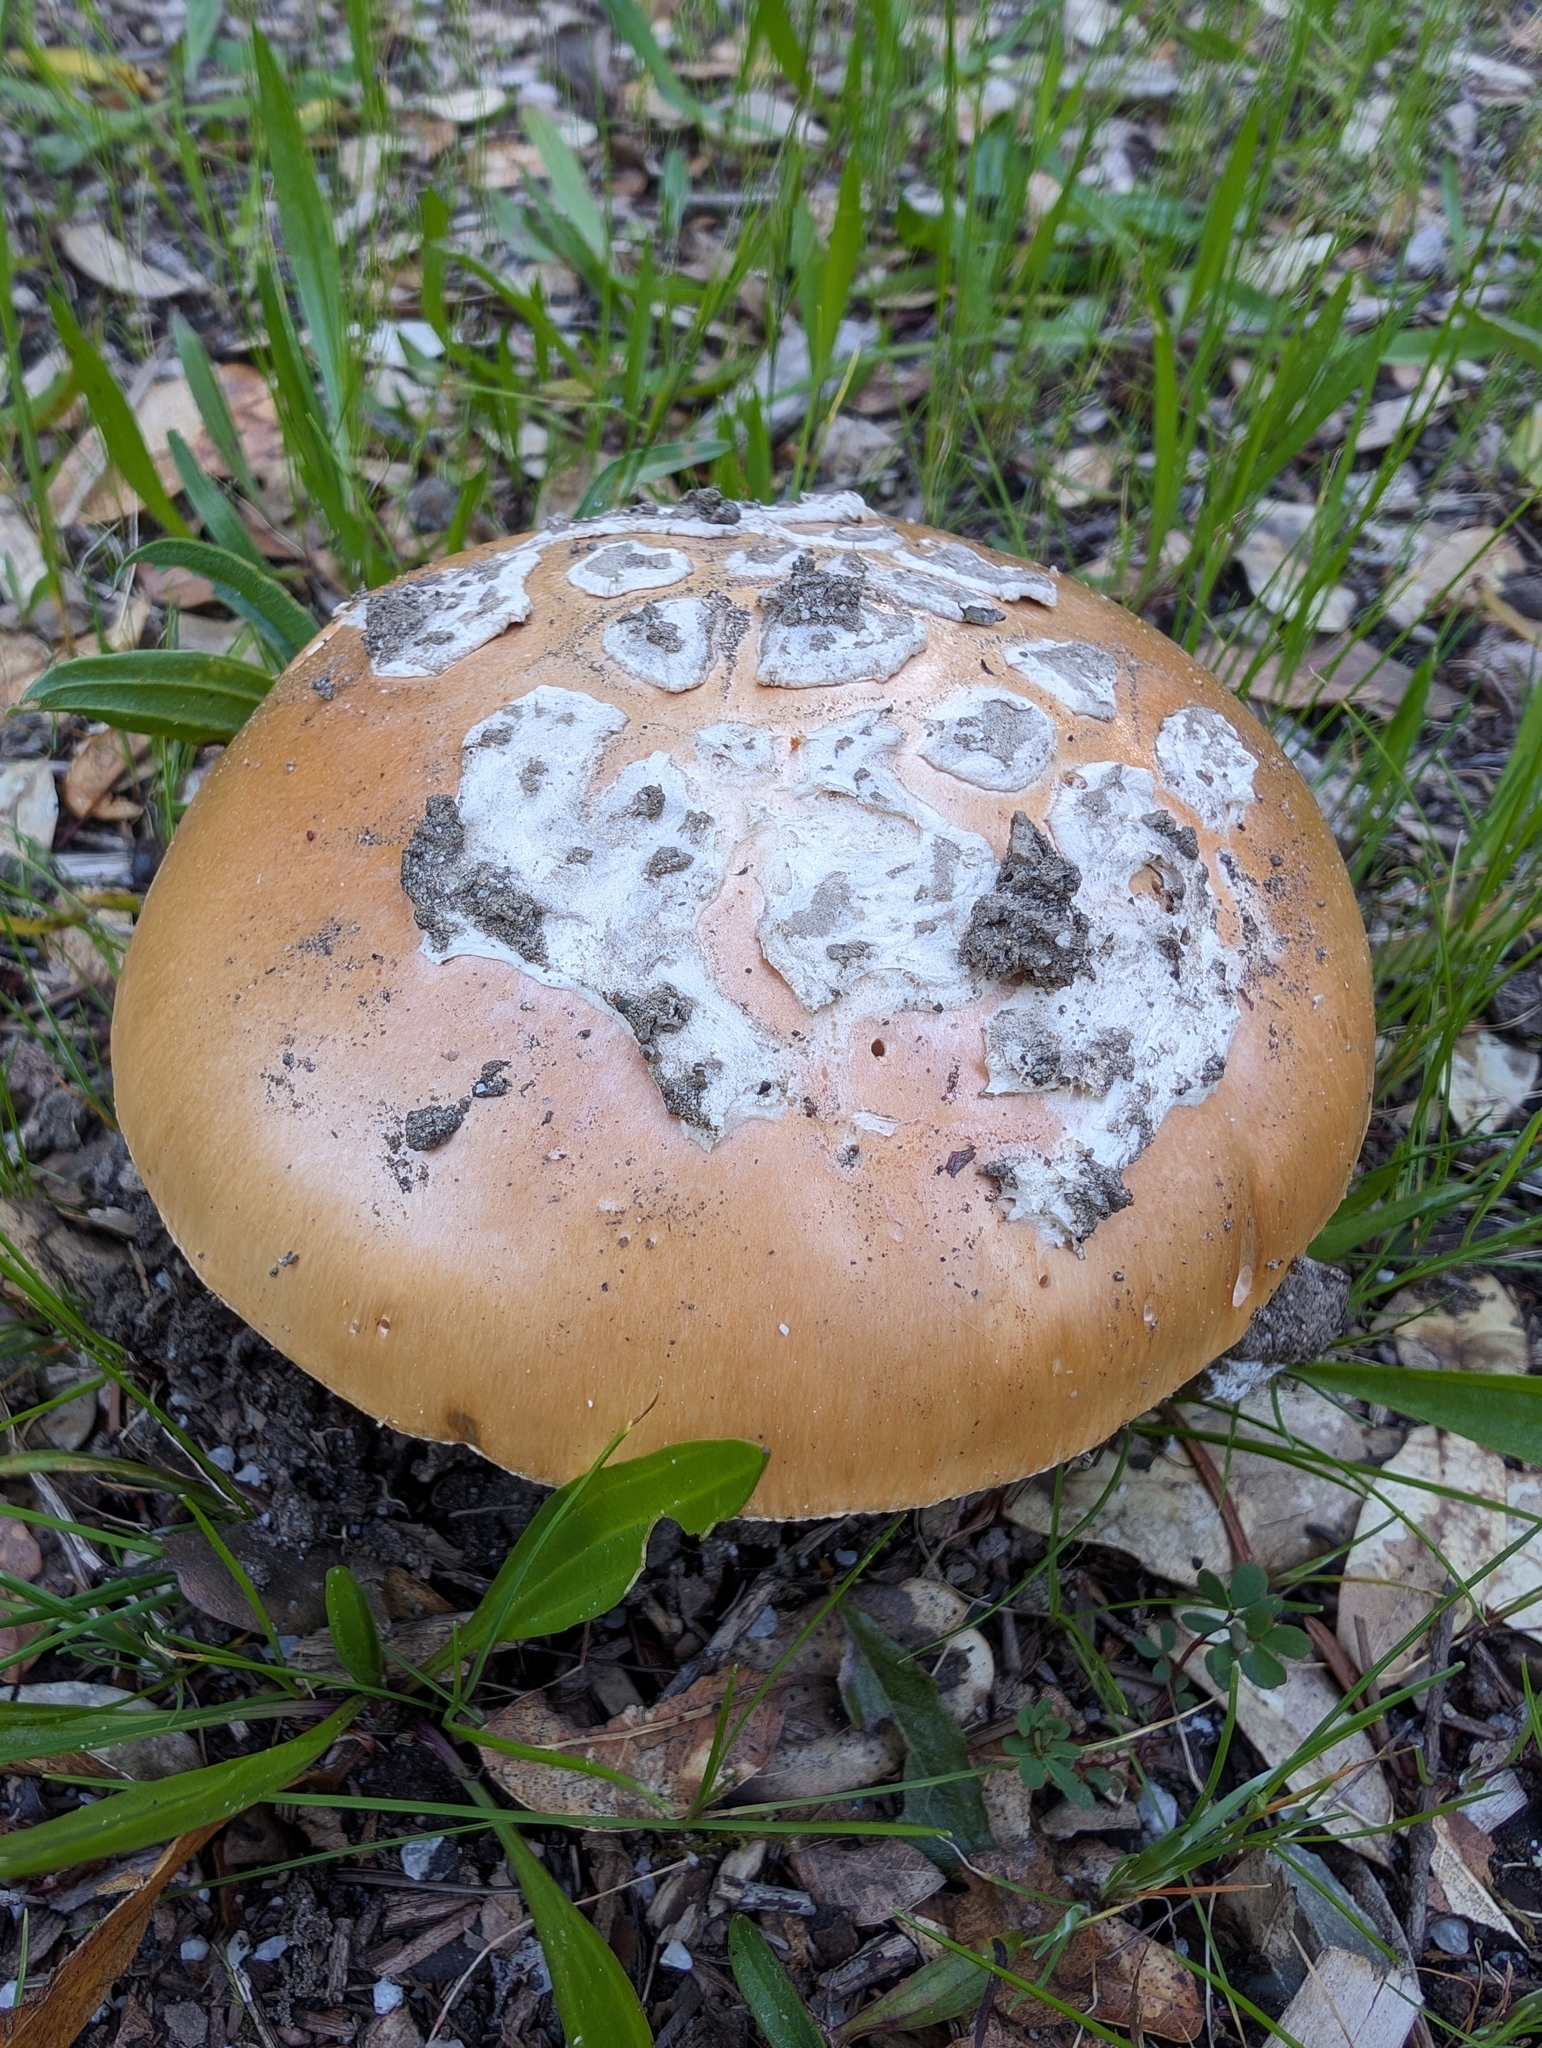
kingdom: Fungi
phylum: Basidiomycota
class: Agaricomycetes
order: Agaricales
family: Amanitaceae
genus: Amanita
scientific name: Amanita velosa
